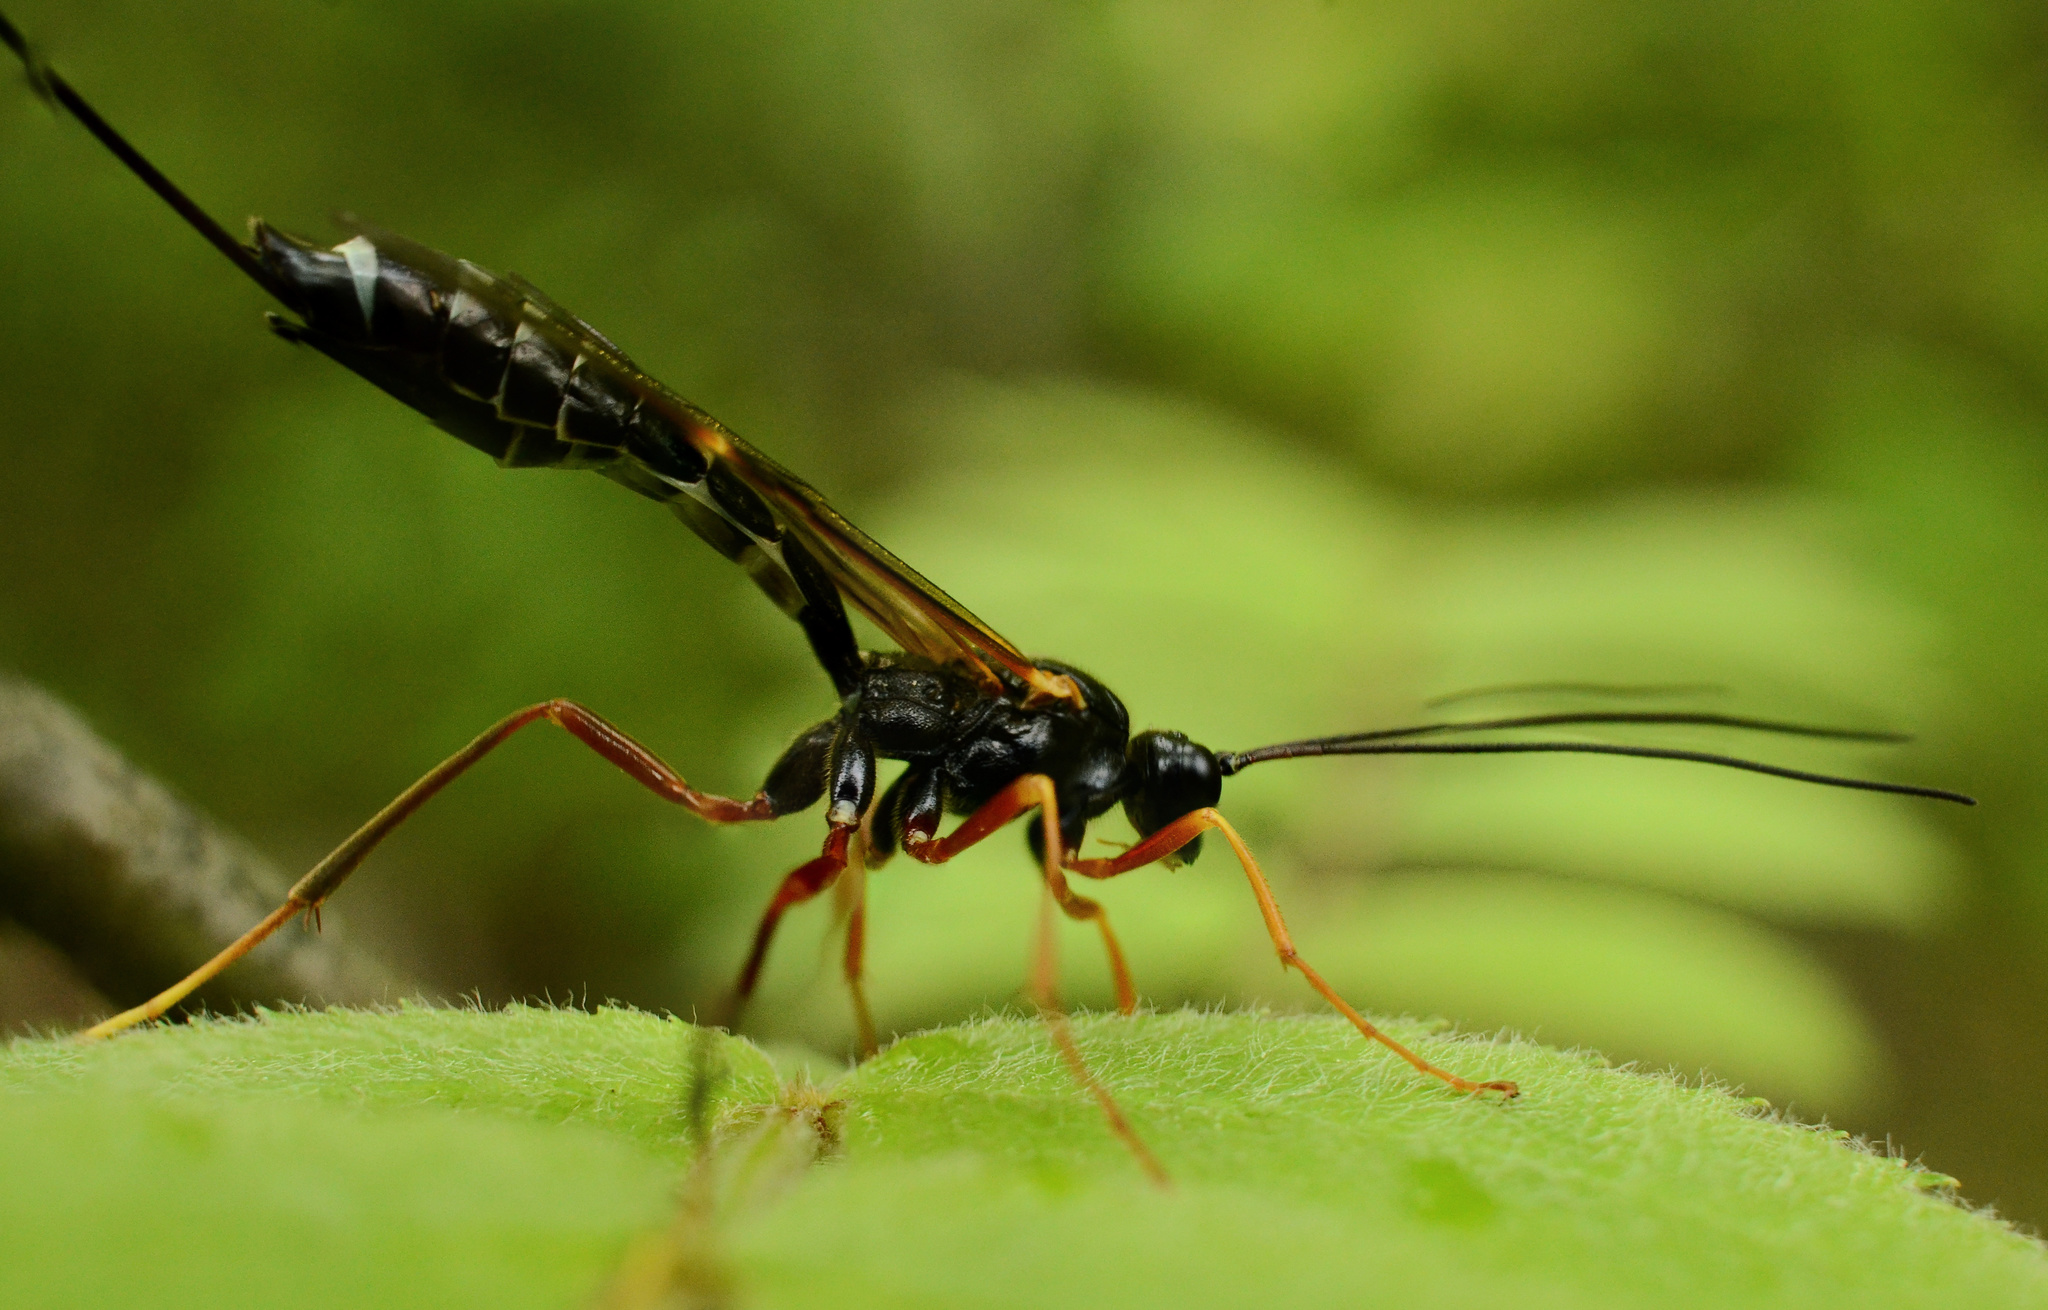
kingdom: Animalia
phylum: Arthropoda
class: Insecta
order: Hymenoptera
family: Ichneumonidae
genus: Coleocentrus
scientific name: Coleocentrus excitator
